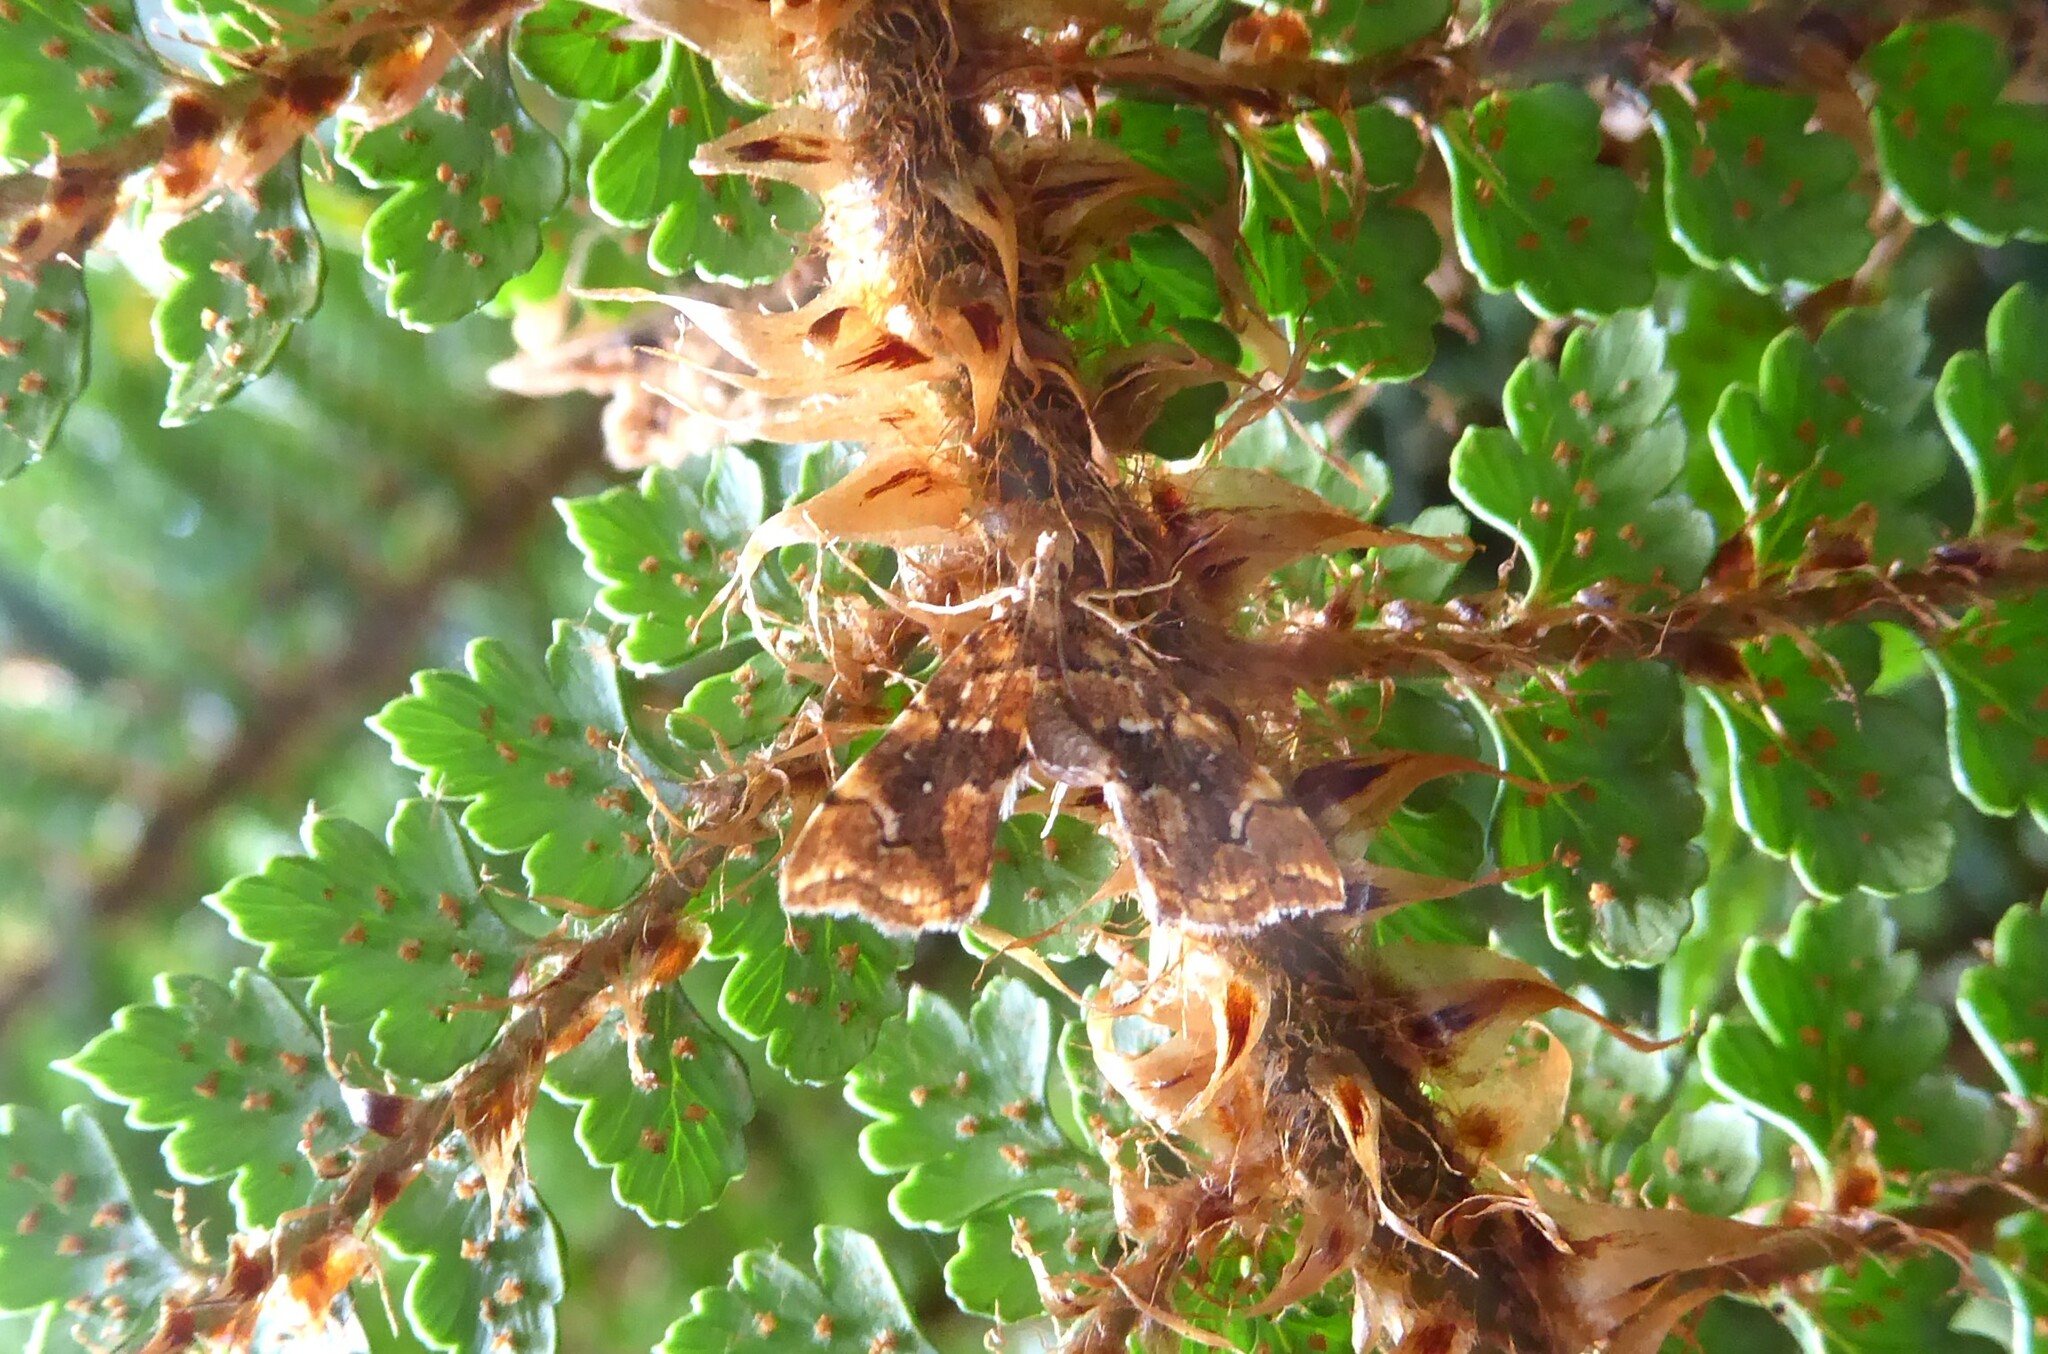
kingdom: Animalia
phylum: Arthropoda
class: Insecta
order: Lepidoptera
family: Pyralidae
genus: Musotima
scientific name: Musotima nitidalis
